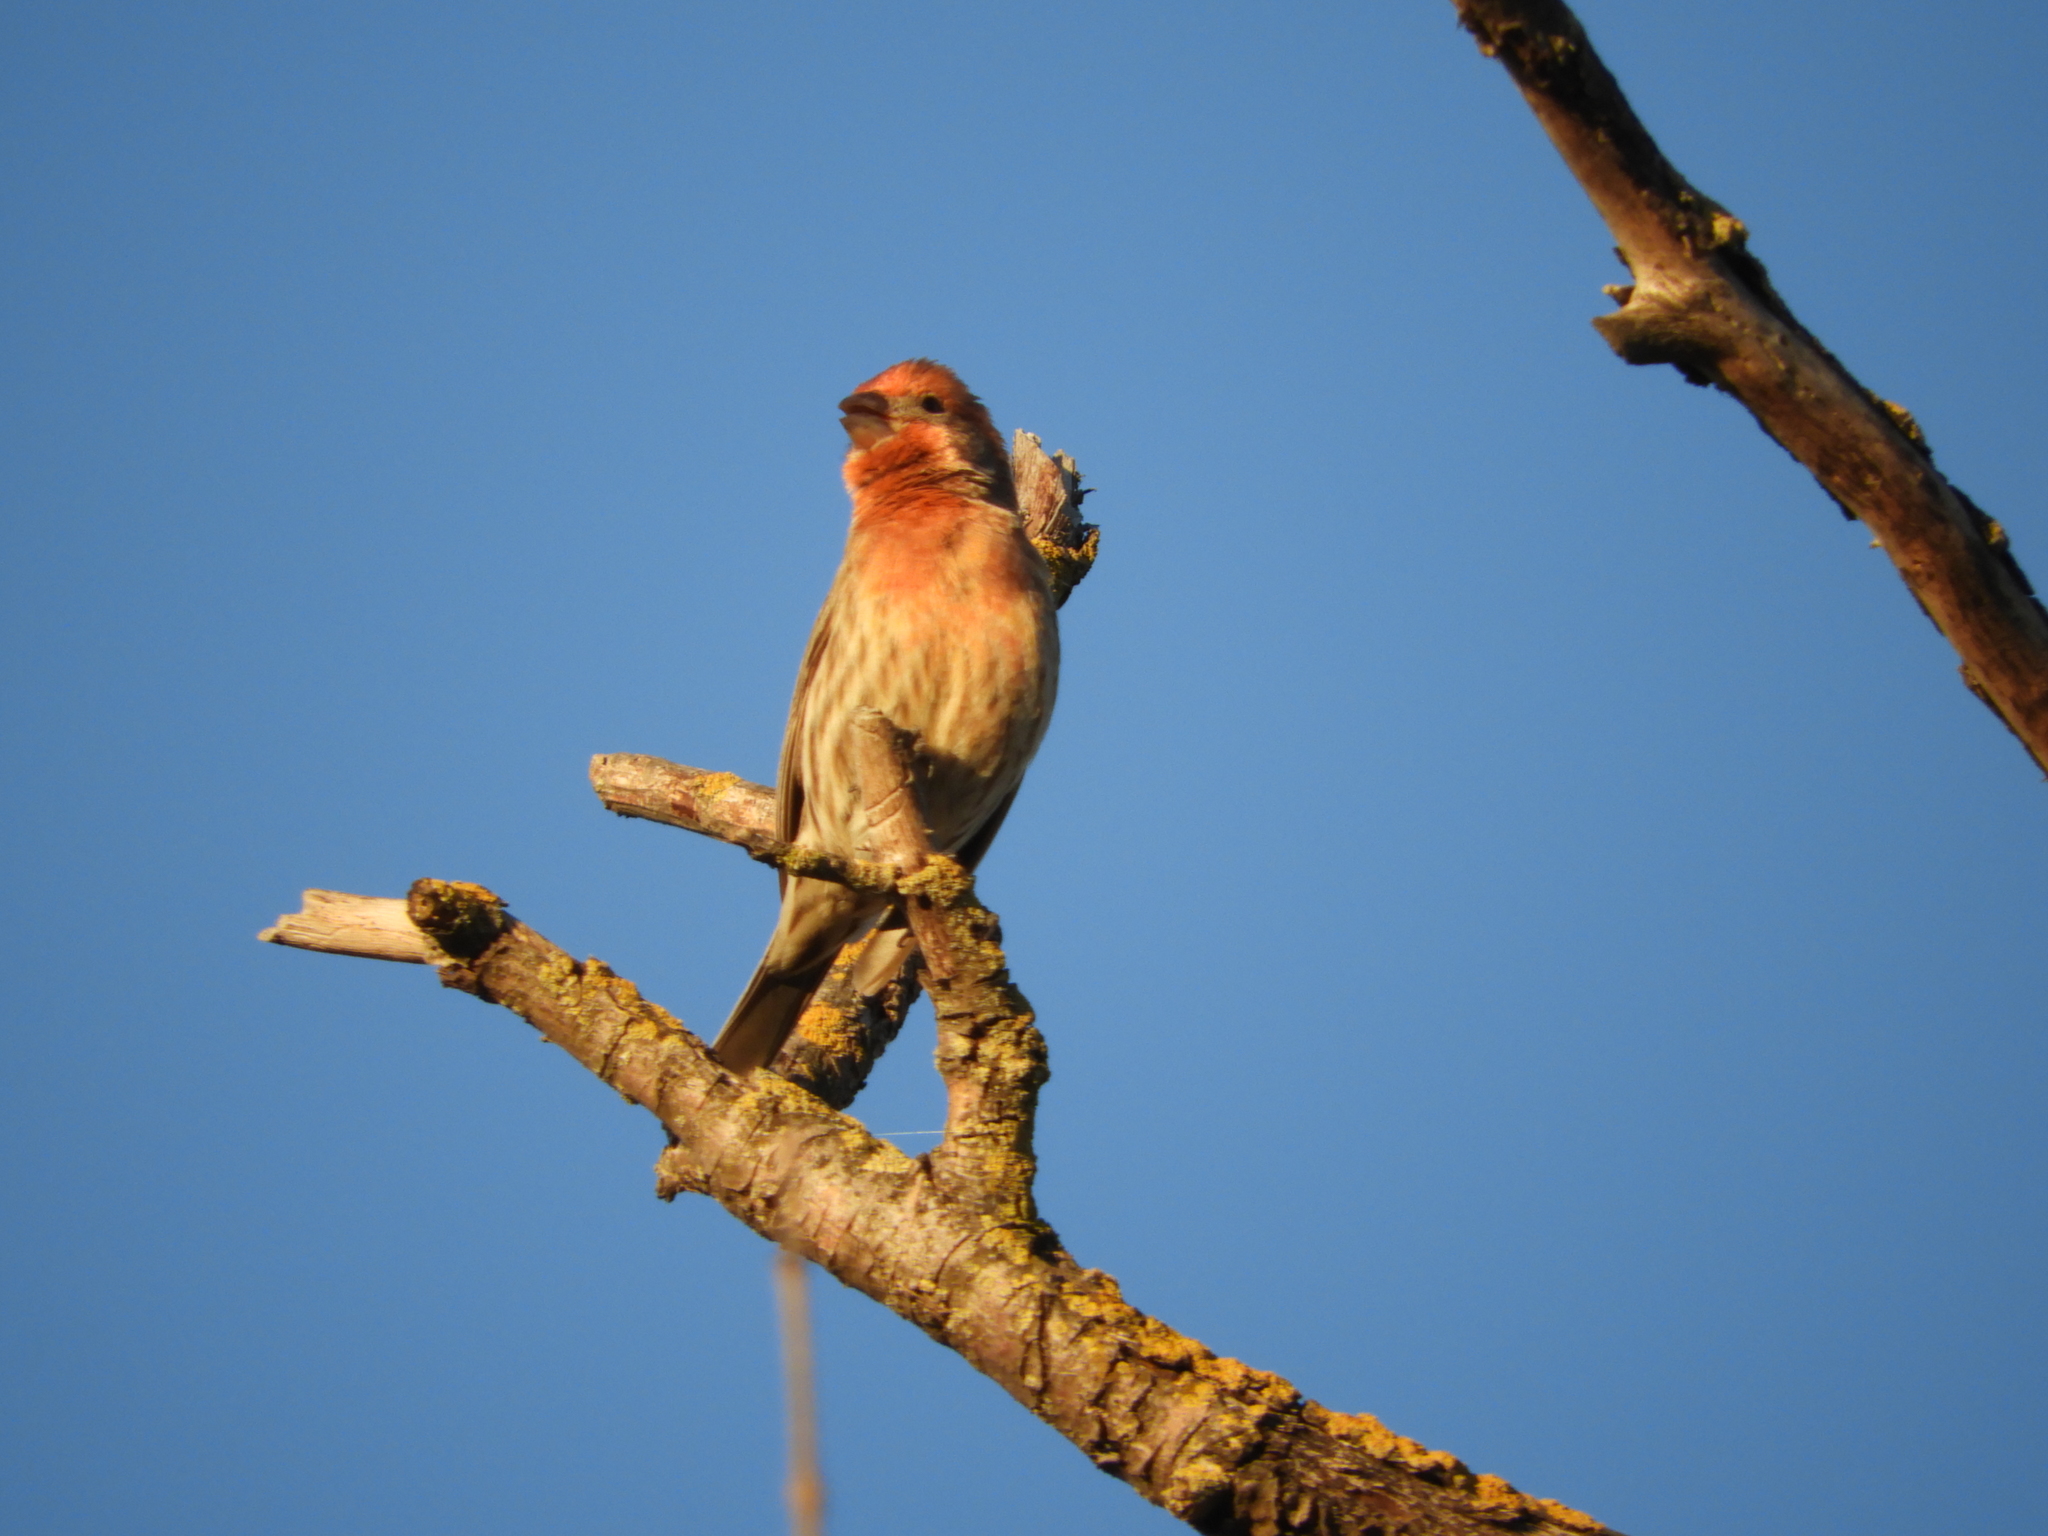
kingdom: Animalia
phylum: Chordata
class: Aves
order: Passeriformes
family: Fringillidae
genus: Haemorhous
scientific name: Haemorhous mexicanus
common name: House finch
